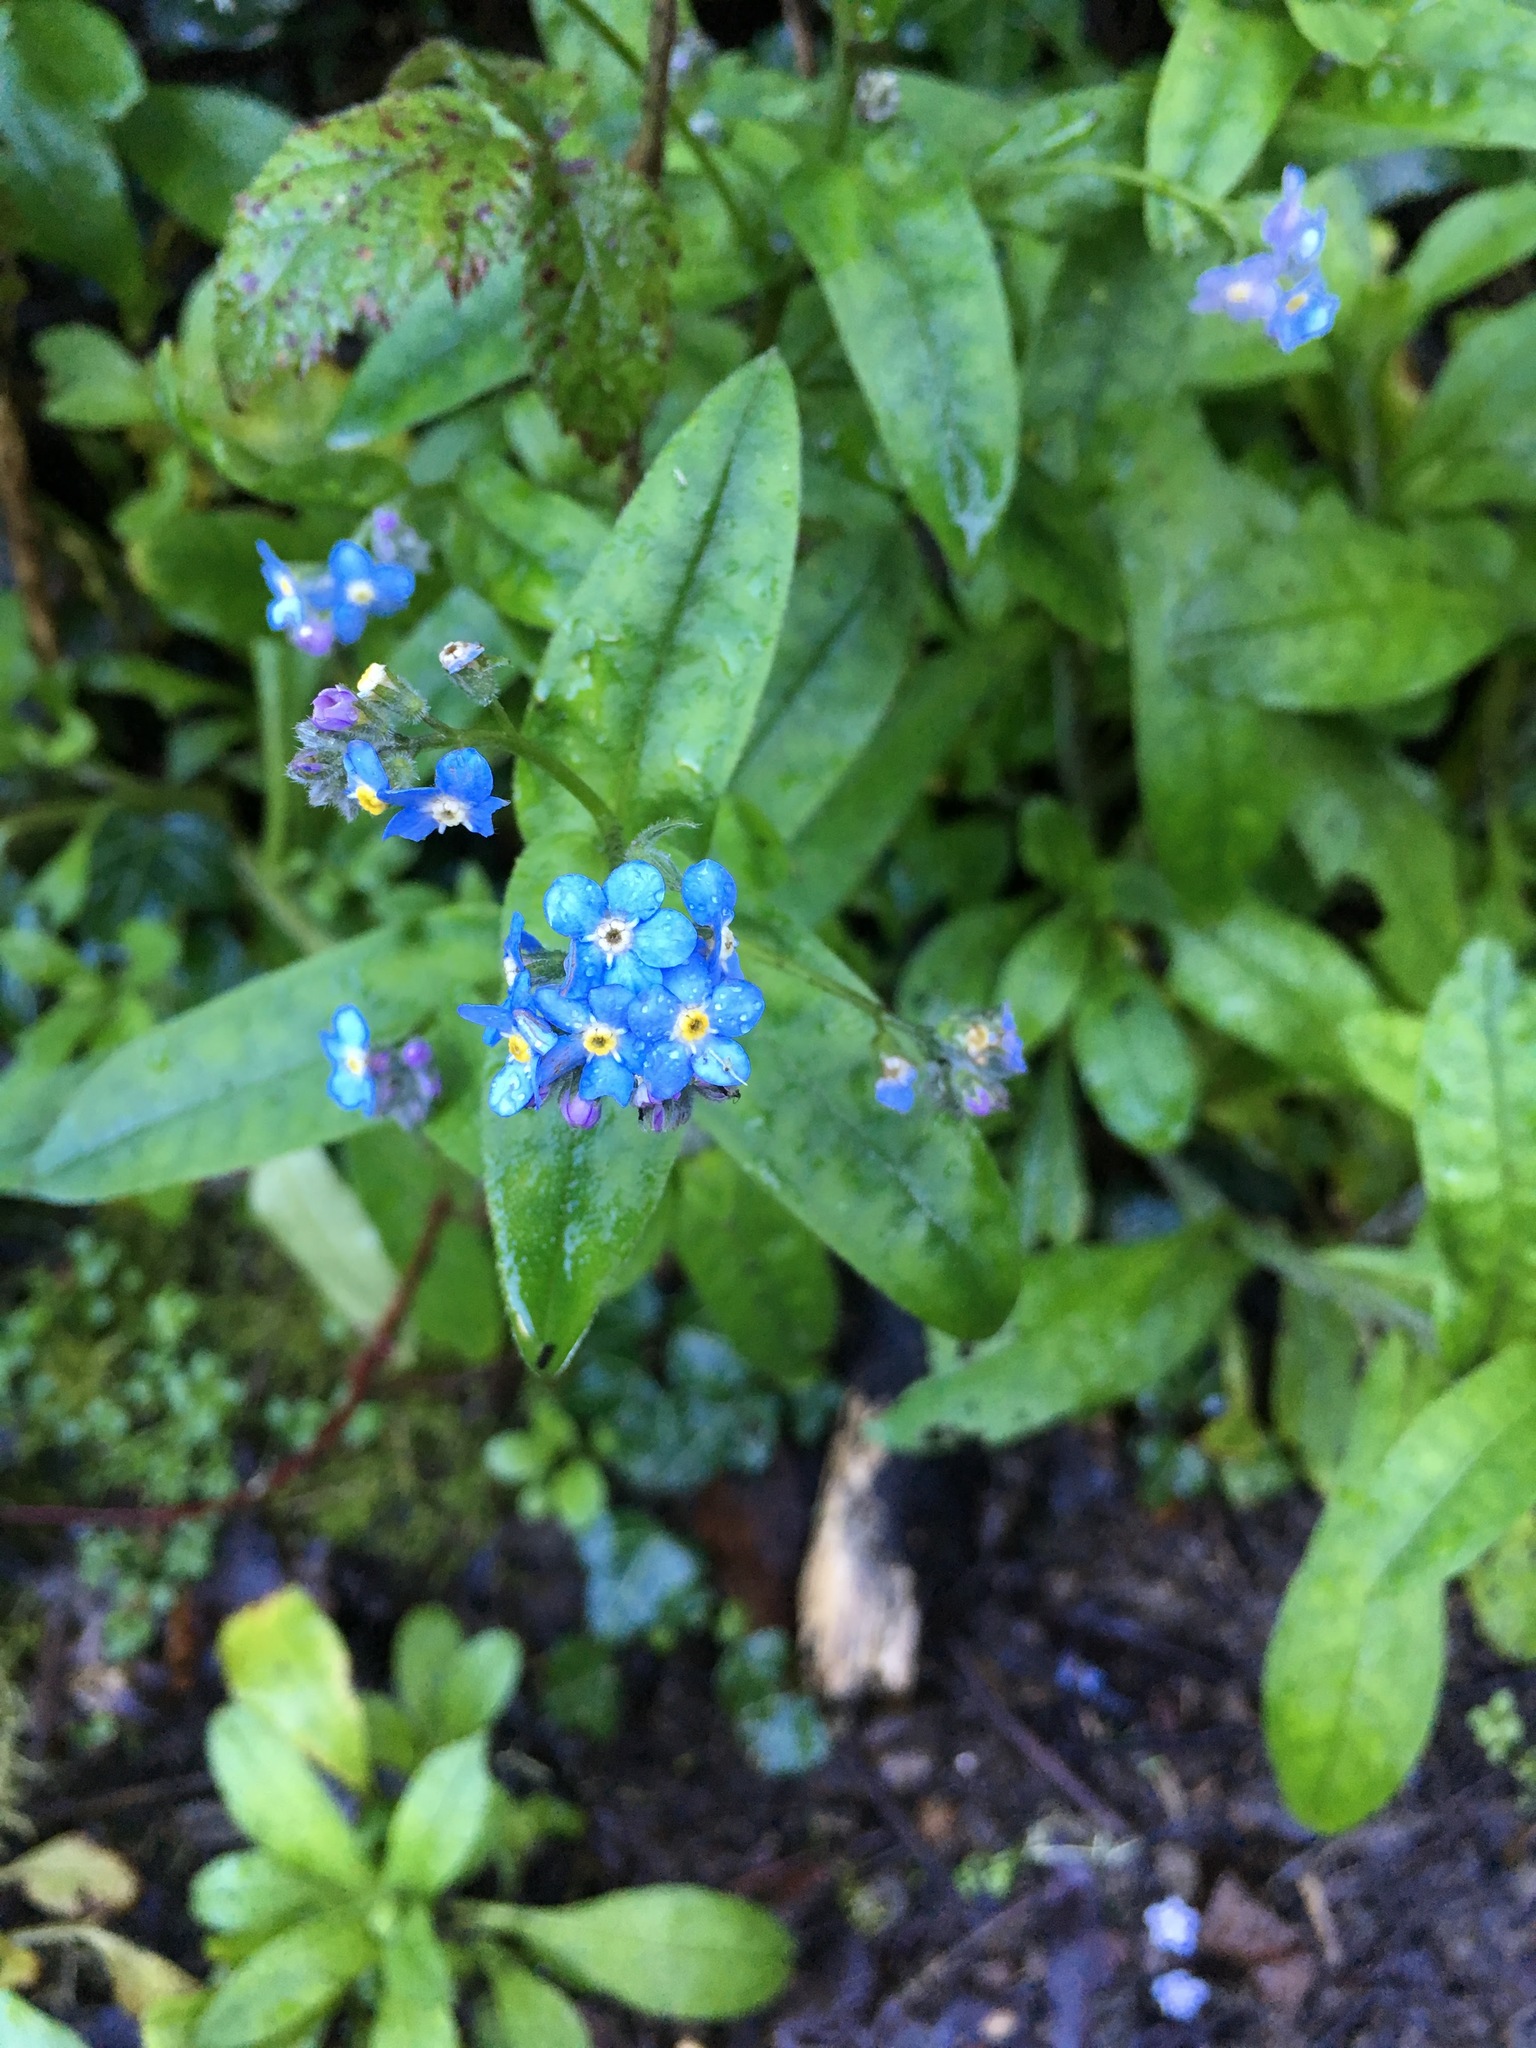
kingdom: Plantae
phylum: Tracheophyta
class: Magnoliopsida
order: Boraginales
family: Boraginaceae
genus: Myosotis
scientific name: Myosotis latifolia
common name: Broadleaf forget-me-not
